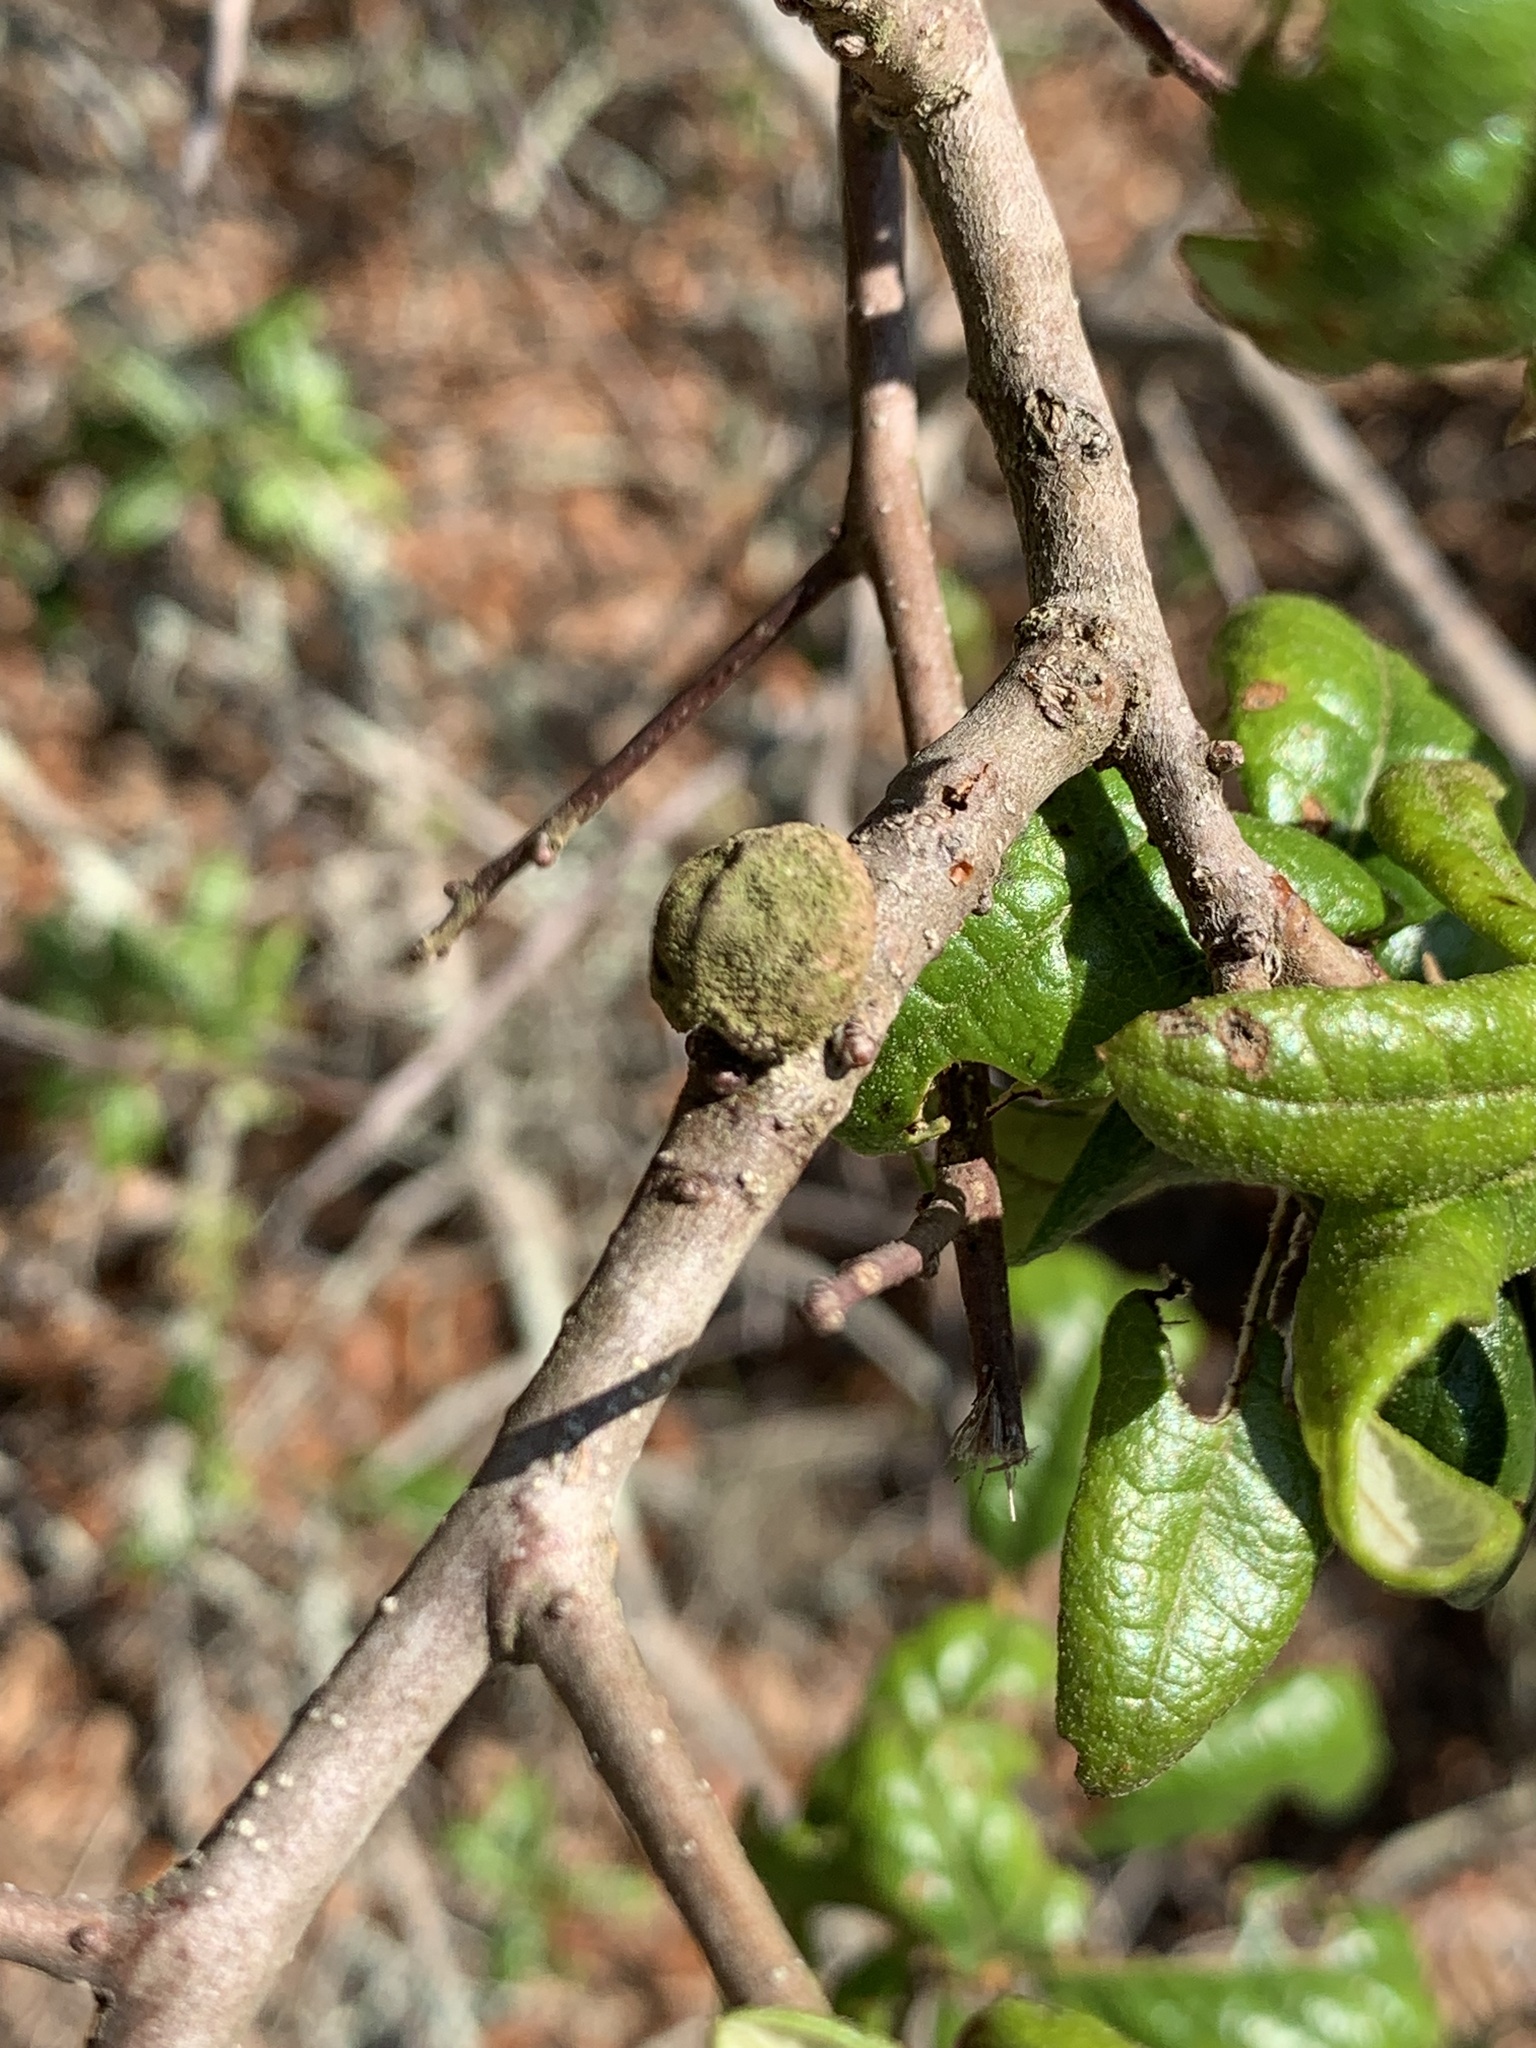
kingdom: Animalia
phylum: Arthropoda
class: Insecta
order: Hymenoptera
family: Cynipidae
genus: Disholcaspis
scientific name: Disholcaspis
